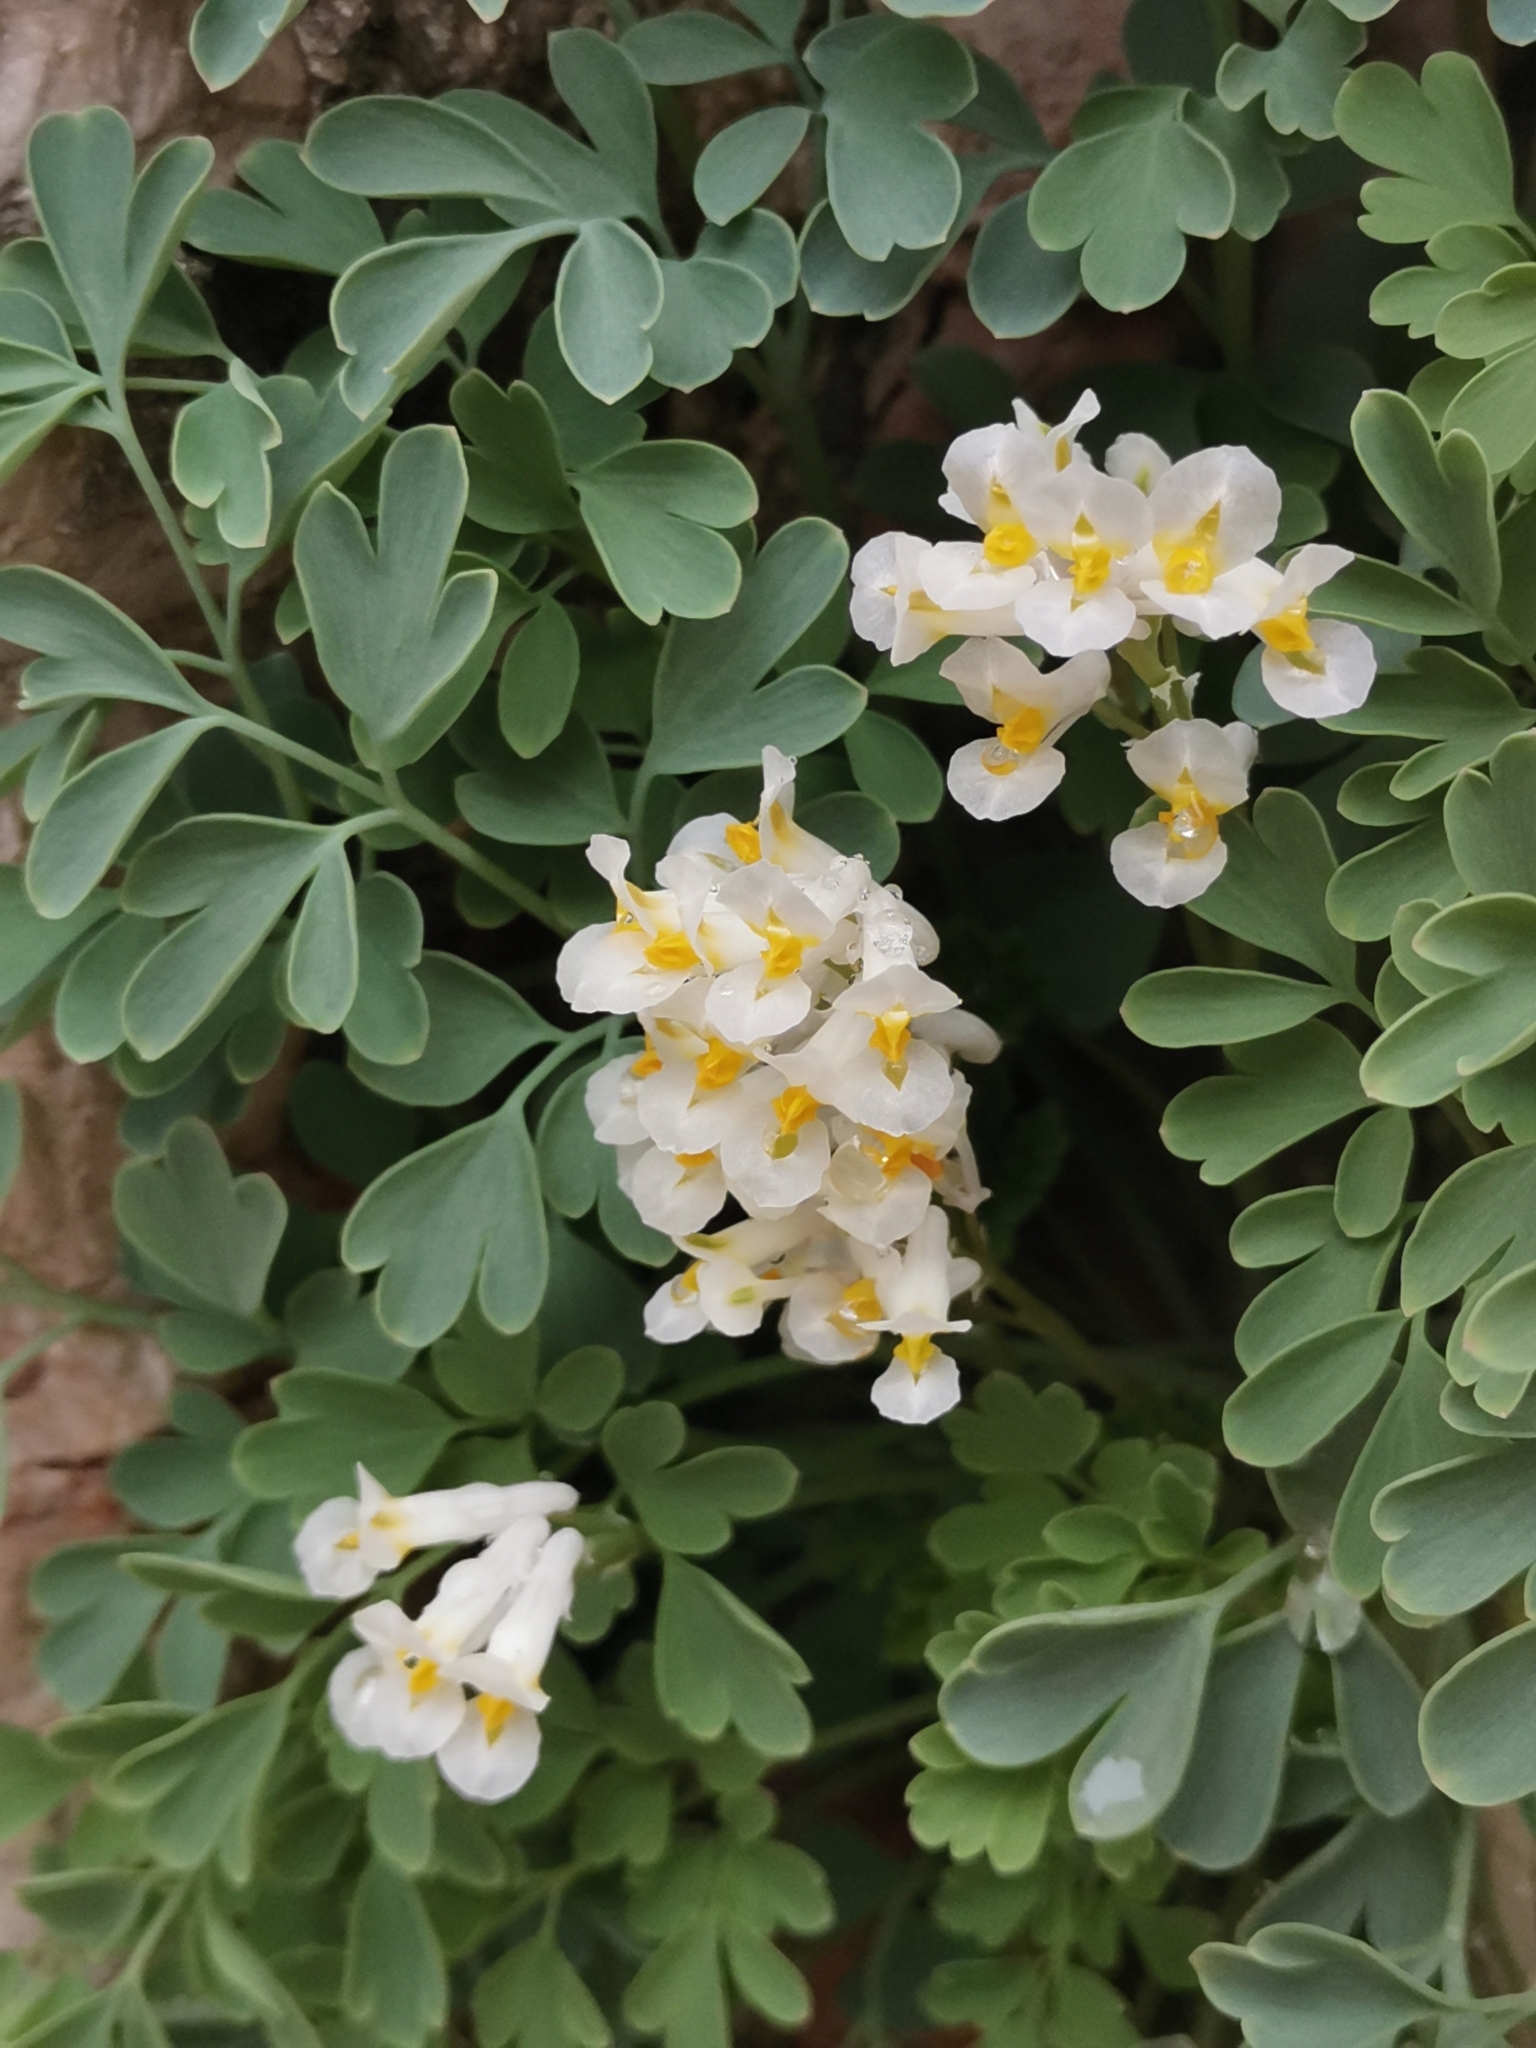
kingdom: Plantae
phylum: Tracheophyta
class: Magnoliopsida
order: Ranunculales
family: Papaveraceae
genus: Pseudofumaria
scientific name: Pseudofumaria alba
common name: Pale corydalis
